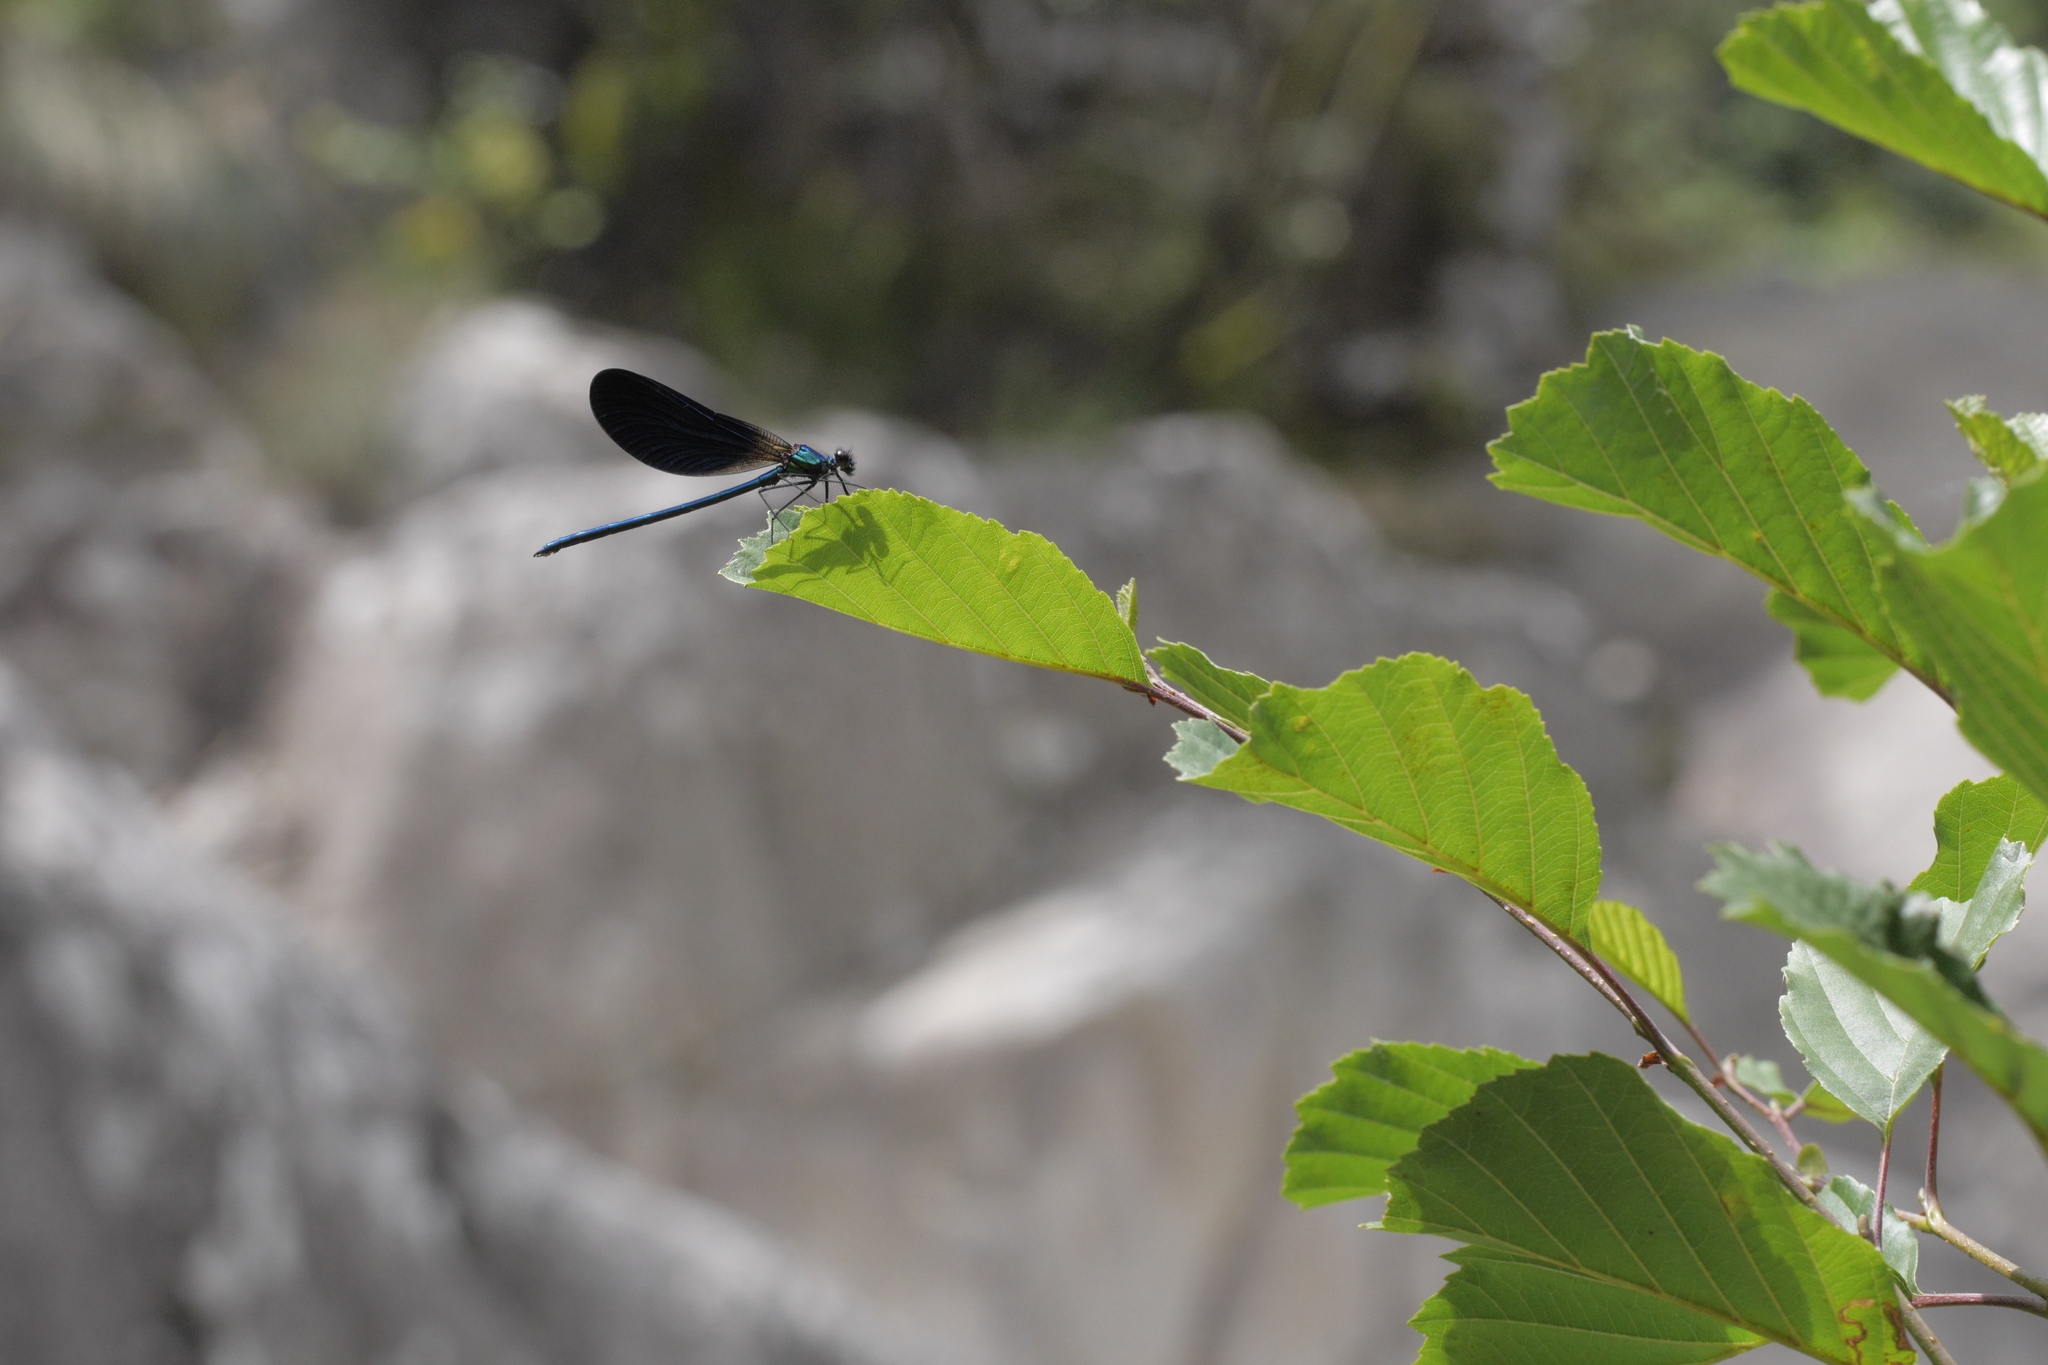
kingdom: Animalia
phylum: Arthropoda
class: Insecta
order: Odonata
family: Calopterygidae
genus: Calopteryx
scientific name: Calopteryx virgo
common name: Beautiful demoiselle
